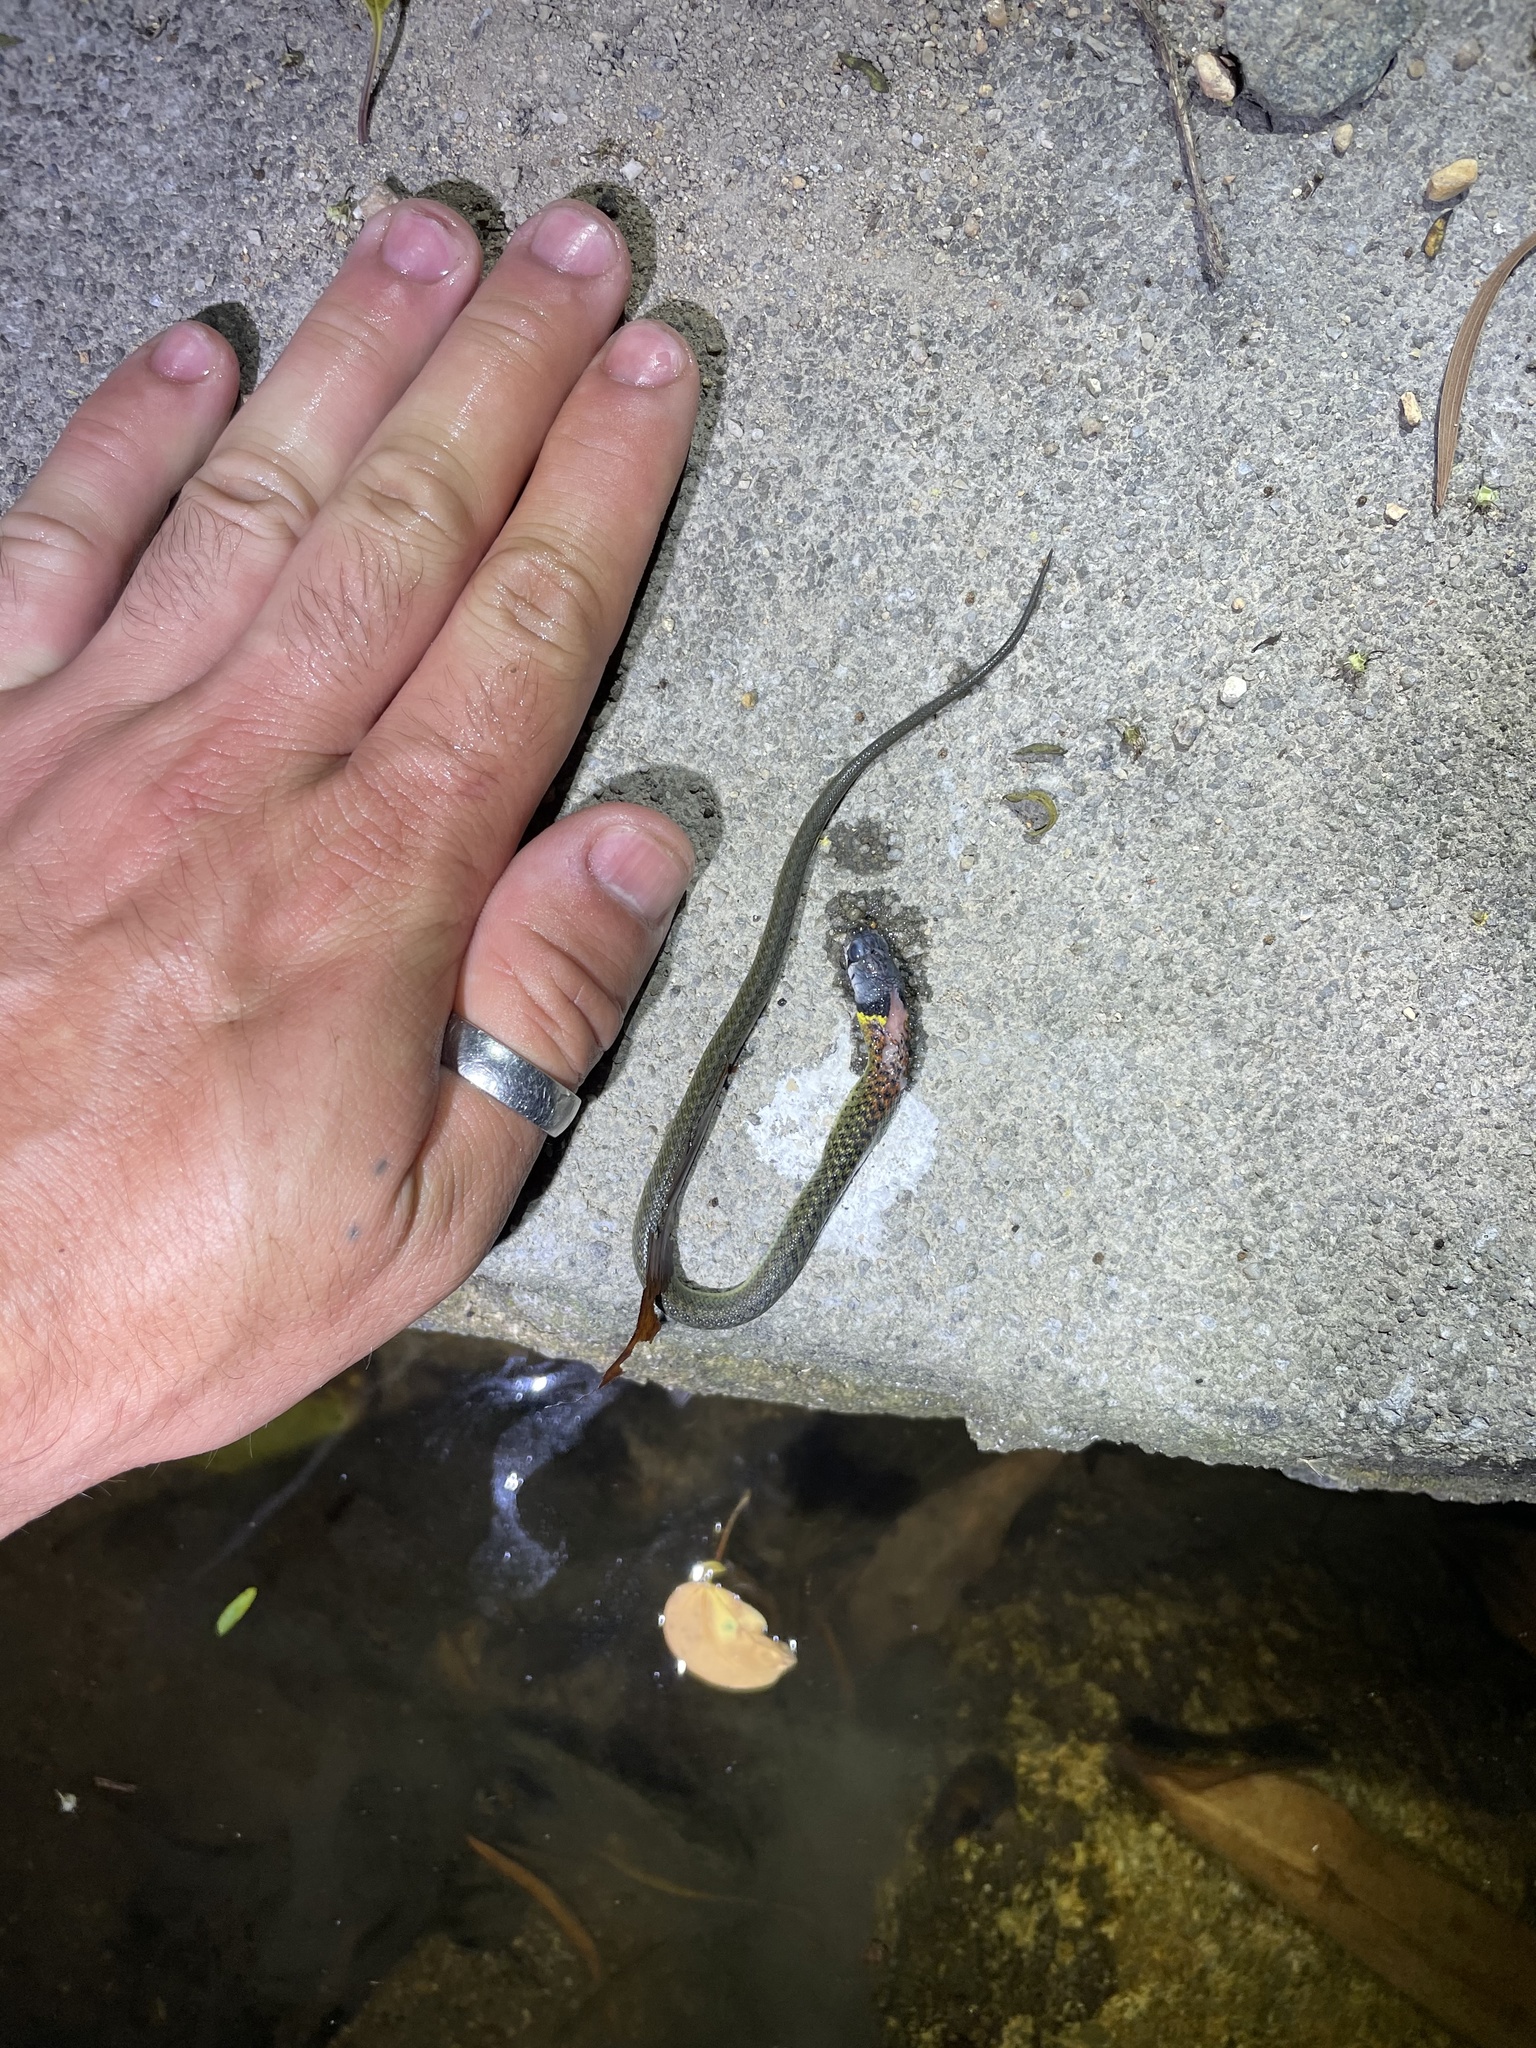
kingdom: Animalia
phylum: Chordata
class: Squamata
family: Colubridae
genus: Rhabdophis
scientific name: Rhabdophis helleri
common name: Heller’s red-necked keelback
